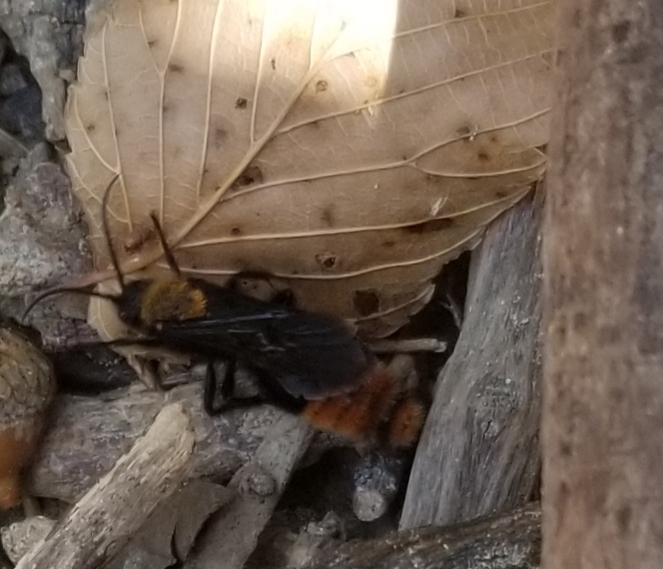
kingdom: Animalia
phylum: Arthropoda
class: Insecta
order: Hymenoptera
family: Mutillidae
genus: Dasymutilla
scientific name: Dasymutilla occidentalis
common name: Common eastern velvet ant
